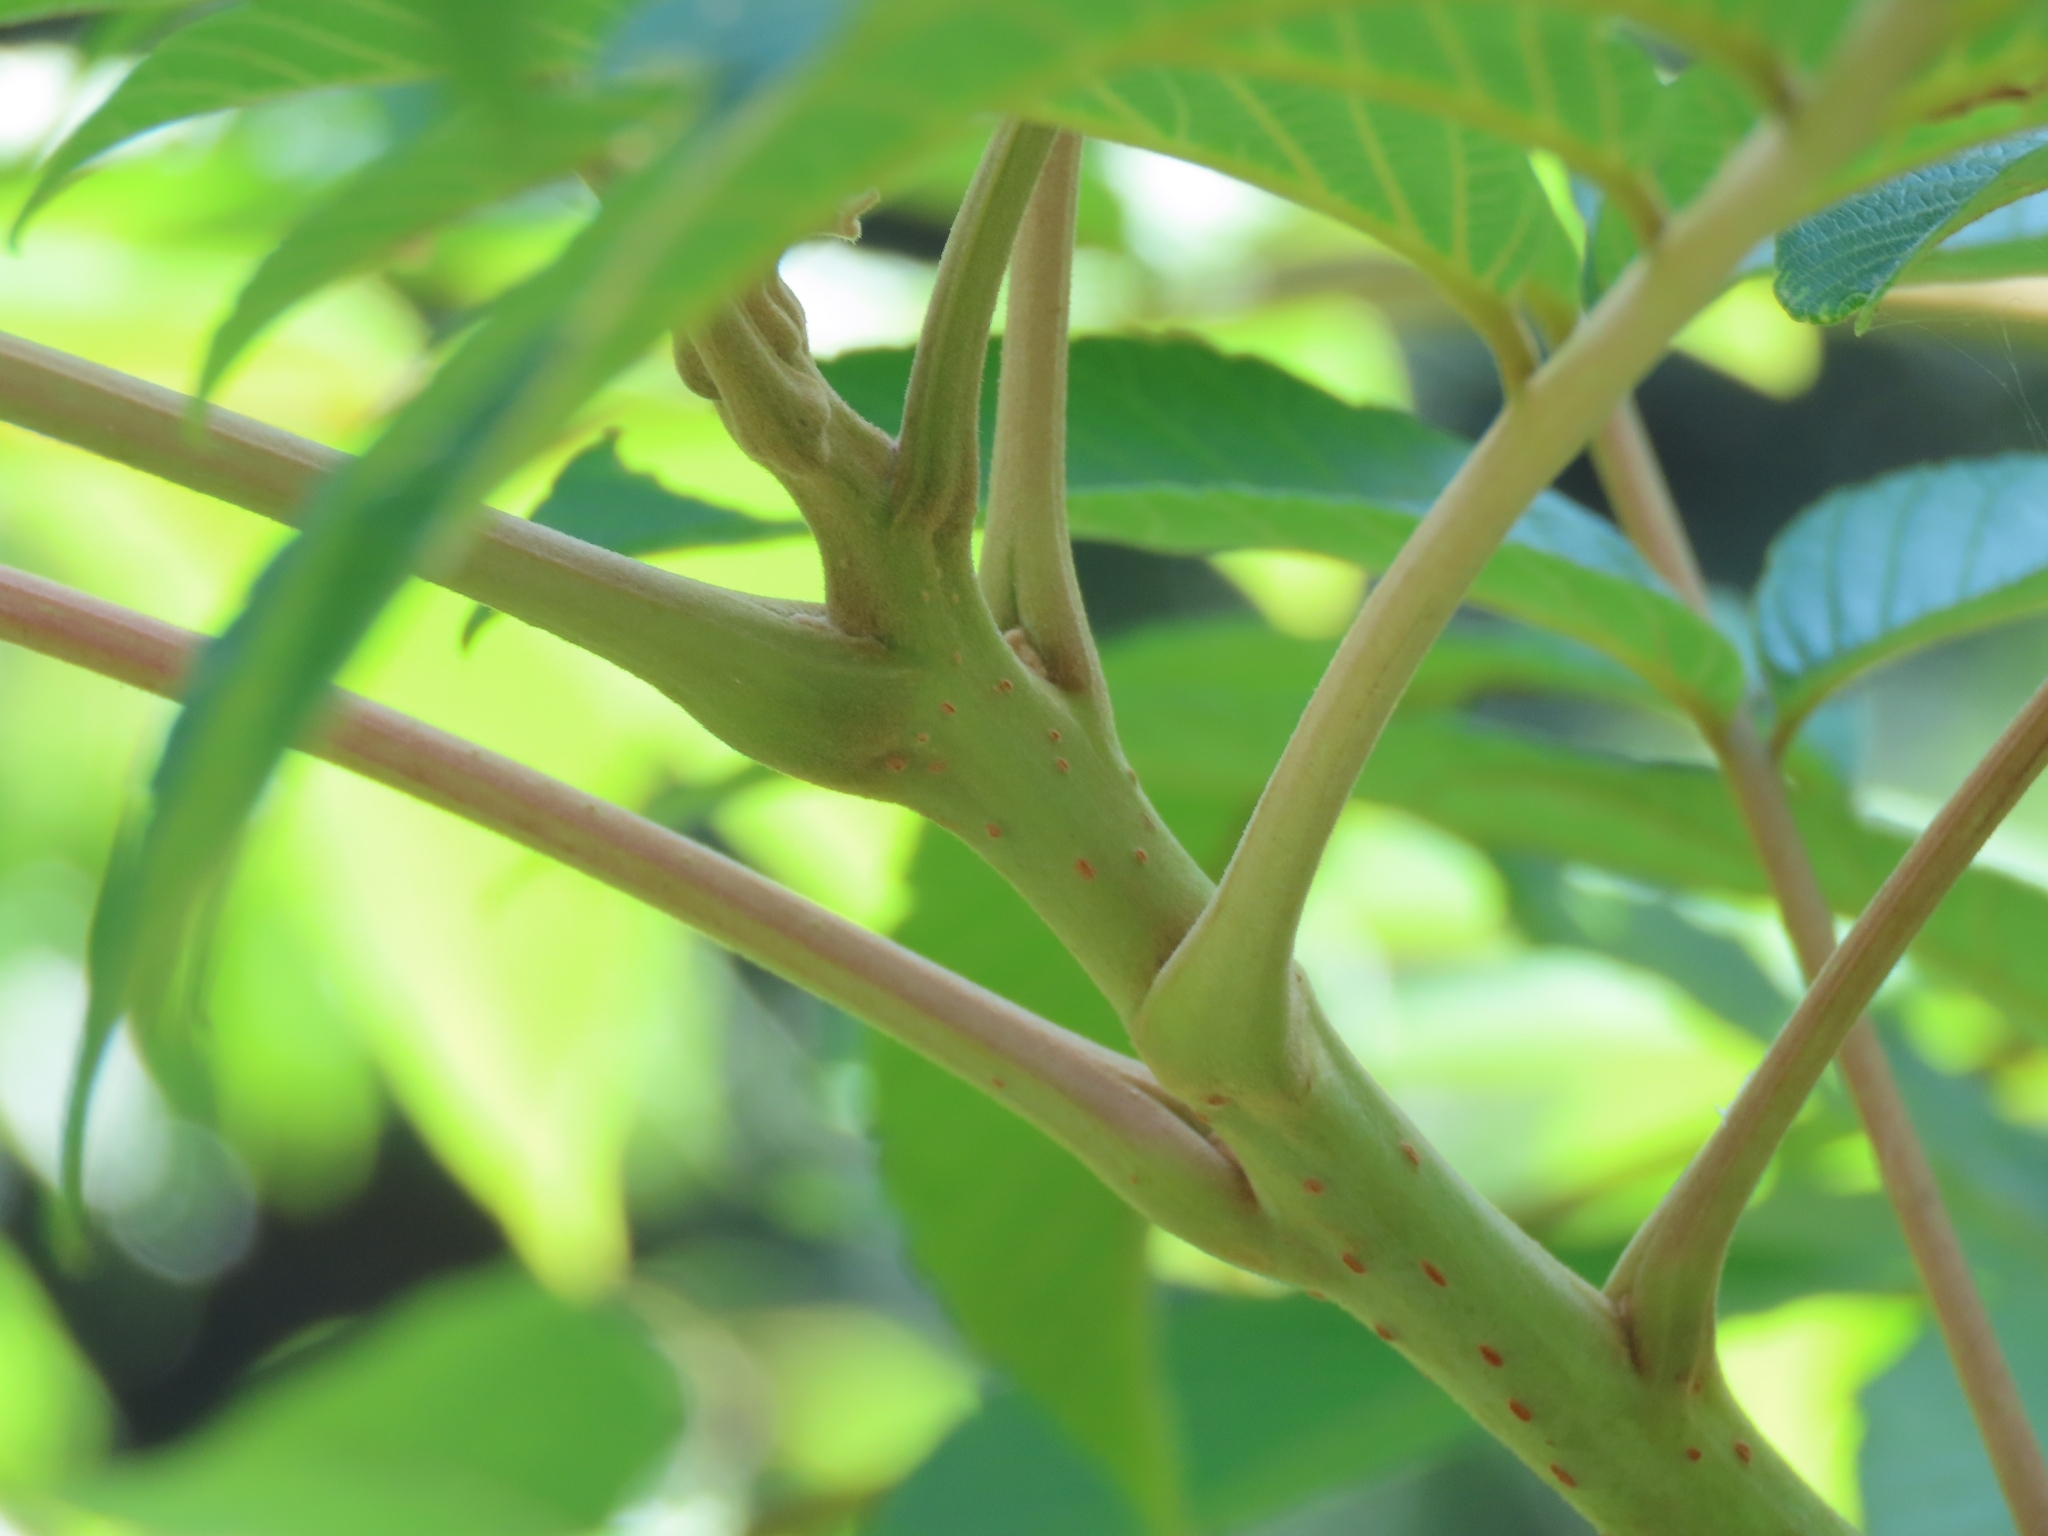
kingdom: Plantae
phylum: Tracheophyta
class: Magnoliopsida
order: Sapindales
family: Anacardiaceae
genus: Rhus
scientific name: Rhus chinensis
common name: Chinese gall
